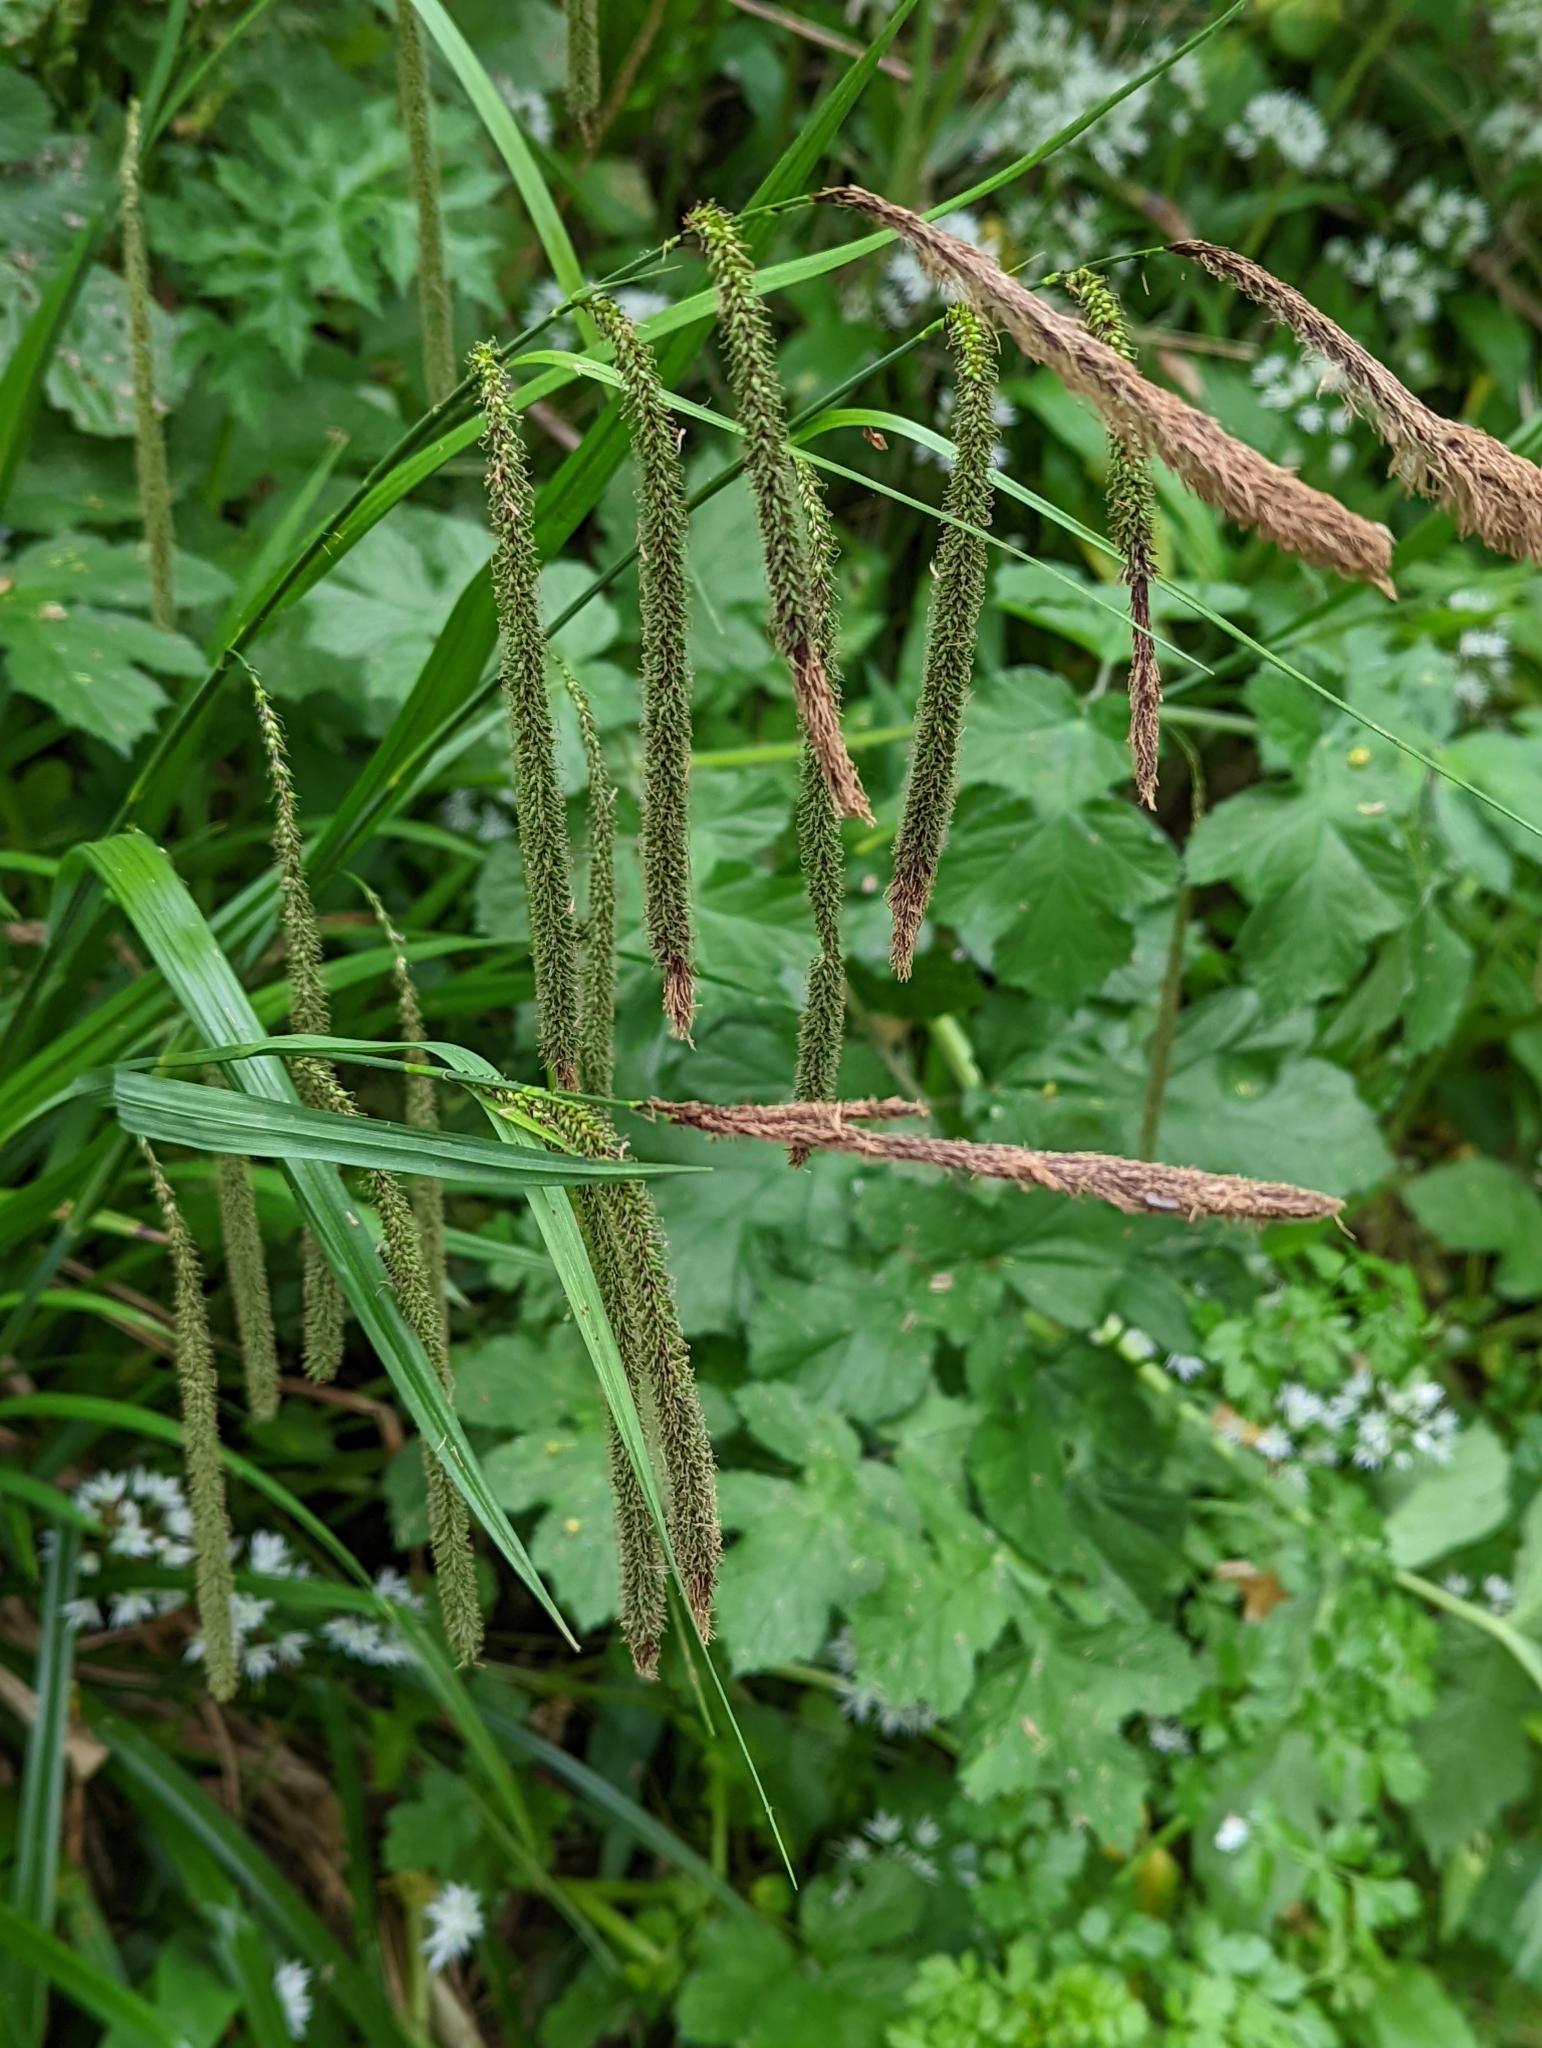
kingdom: Plantae
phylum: Tracheophyta
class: Liliopsida
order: Poales
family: Cyperaceae
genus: Carex
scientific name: Carex pendula
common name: Pendulous sedge
